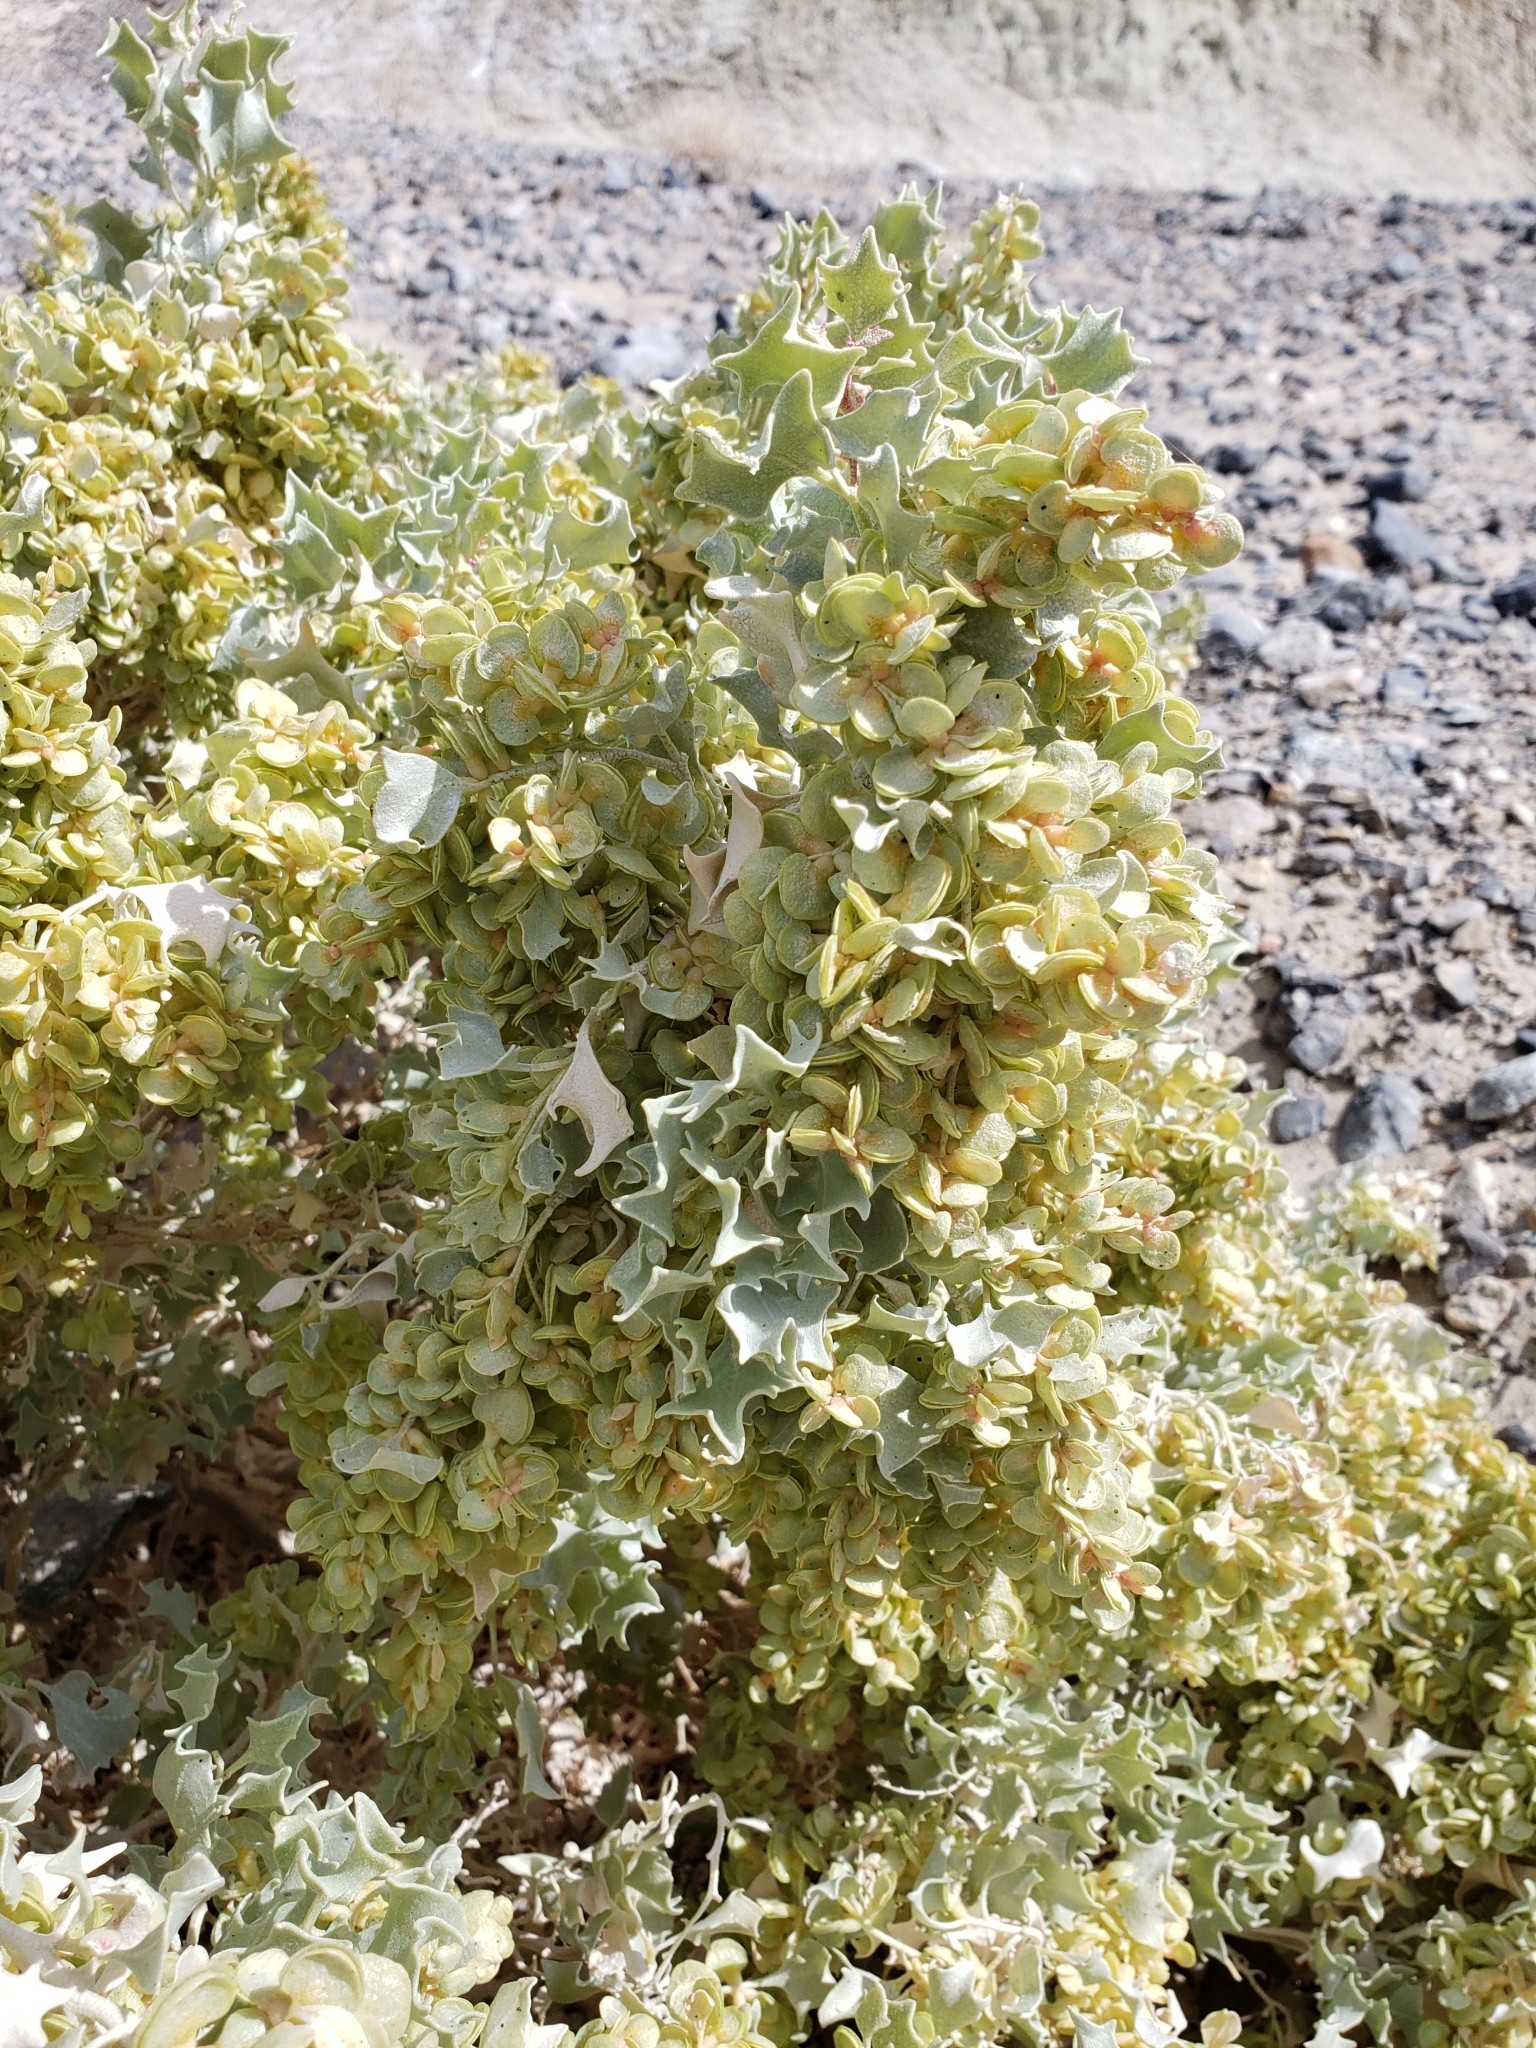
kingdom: Plantae
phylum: Tracheophyta
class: Magnoliopsida
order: Caryophyllales
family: Amaranthaceae
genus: Atriplex
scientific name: Atriplex hymenelytra
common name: Desert-holly
